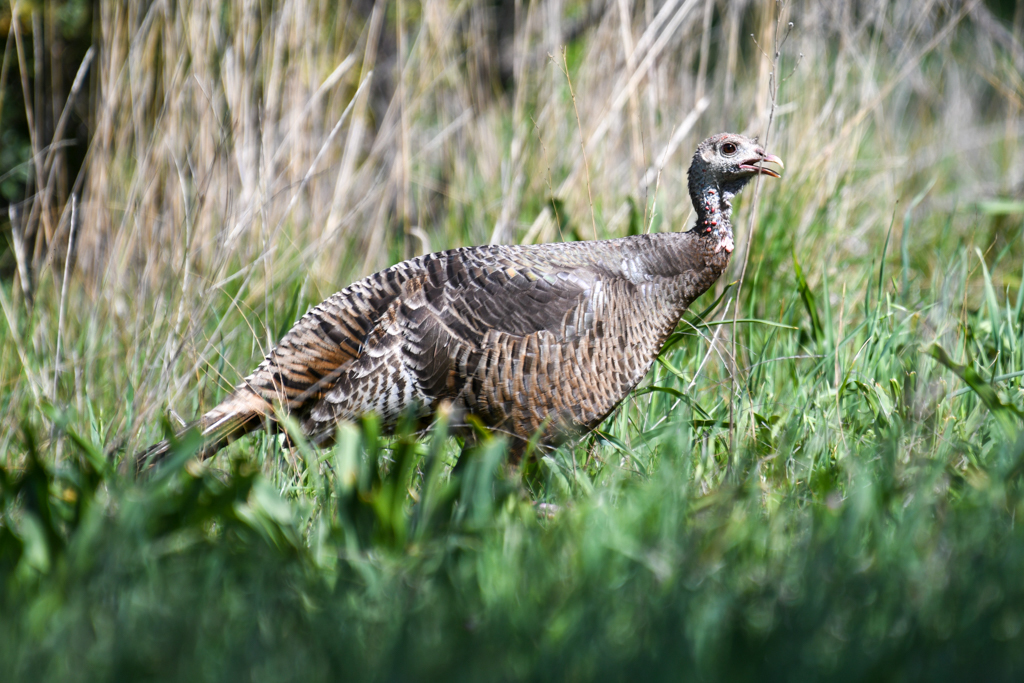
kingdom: Animalia
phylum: Chordata
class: Aves
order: Galliformes
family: Phasianidae
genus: Meleagris
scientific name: Meleagris gallopavo
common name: Wild turkey
